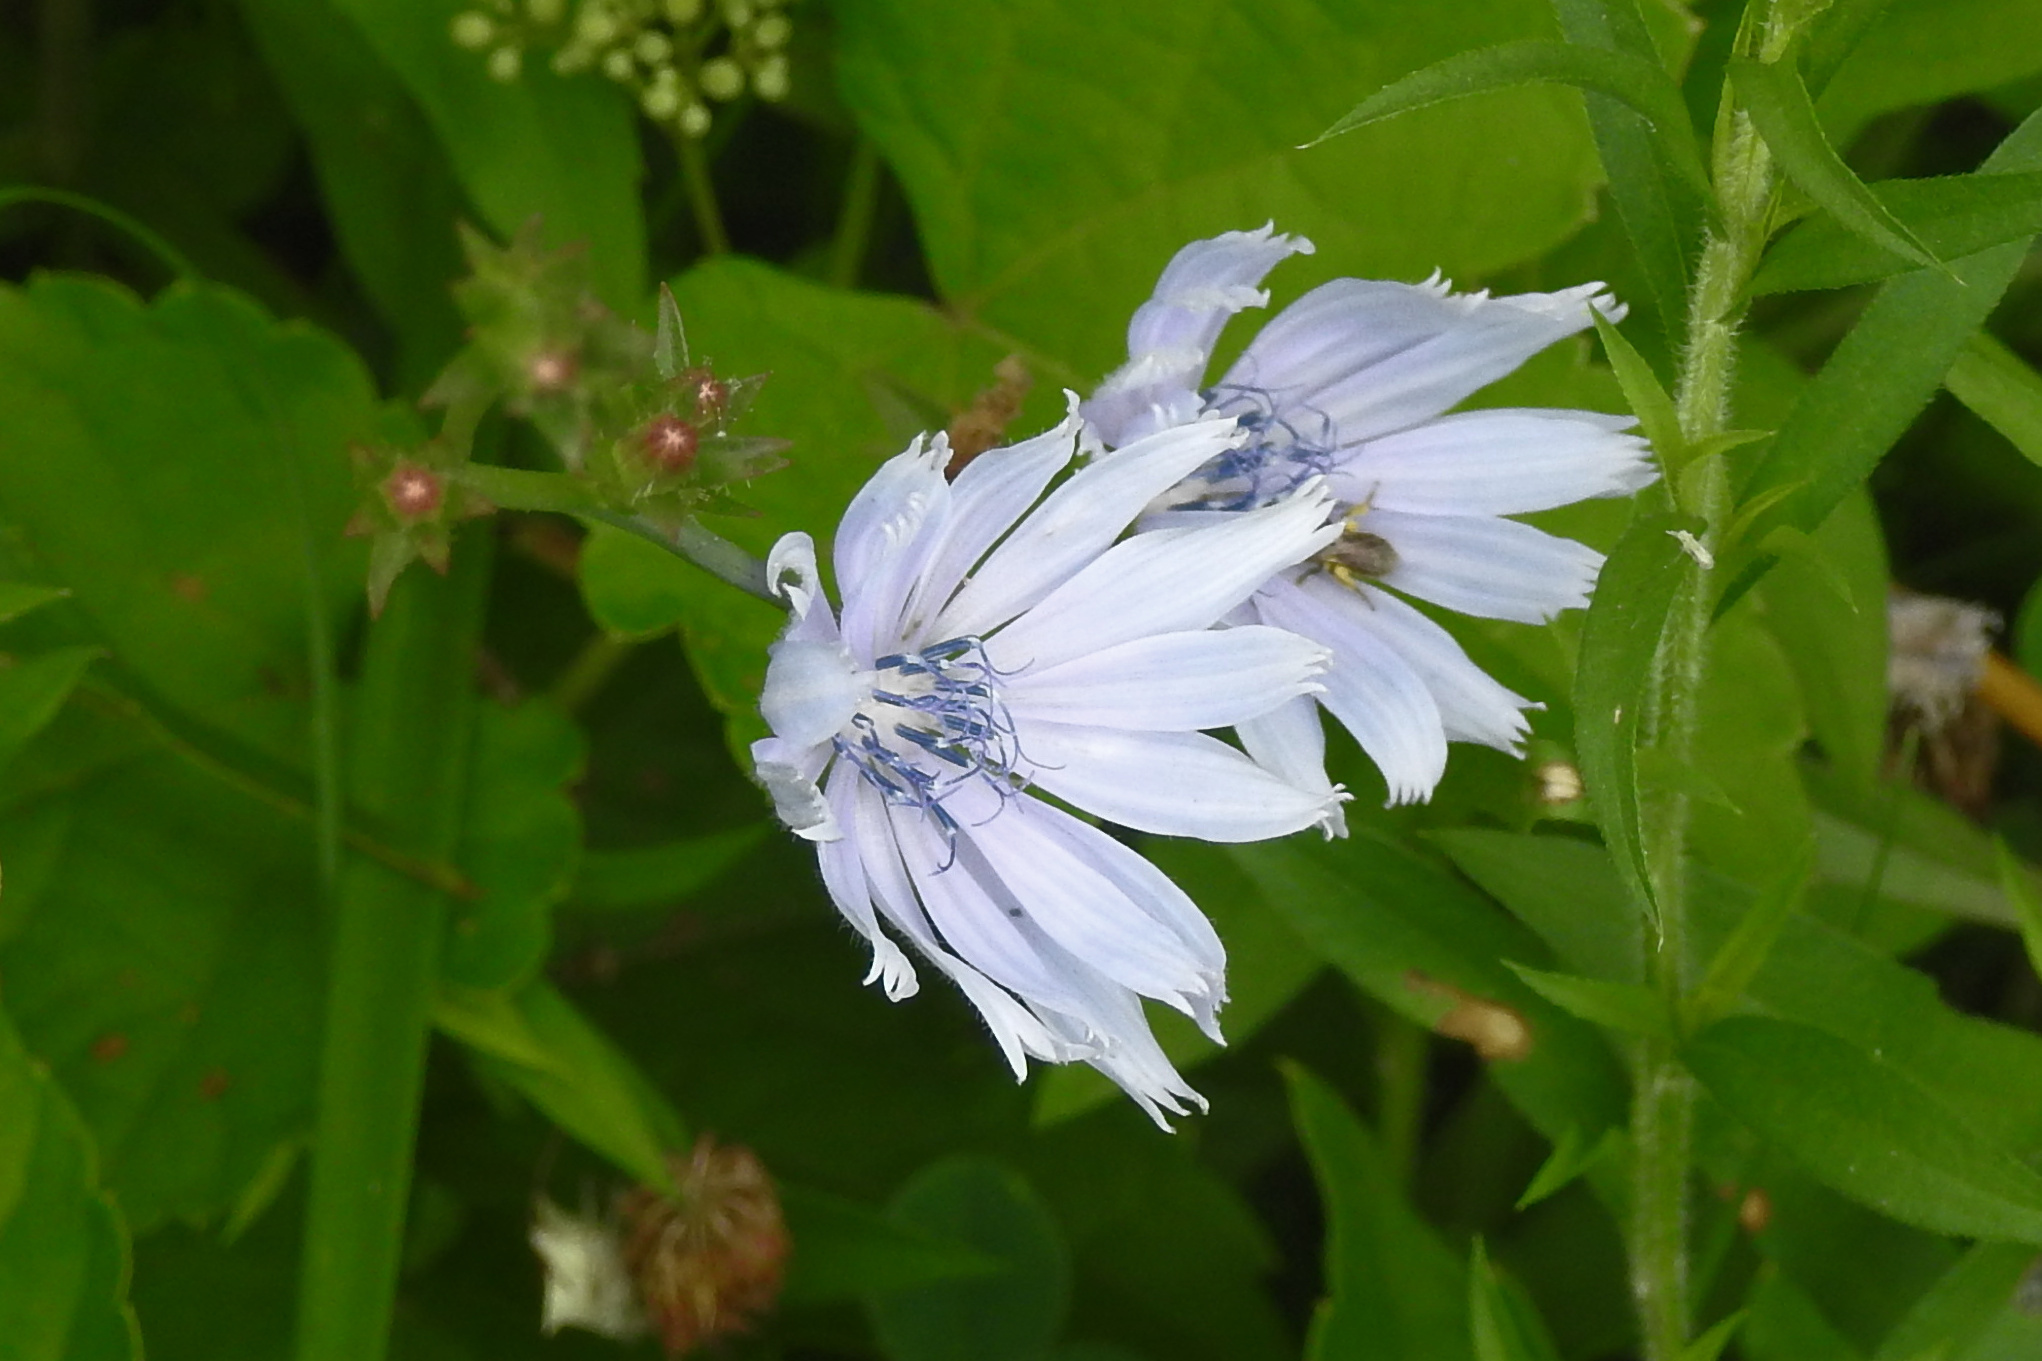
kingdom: Plantae
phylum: Tracheophyta
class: Magnoliopsida
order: Asterales
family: Asteraceae
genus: Cichorium
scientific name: Cichorium intybus
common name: Chicory
